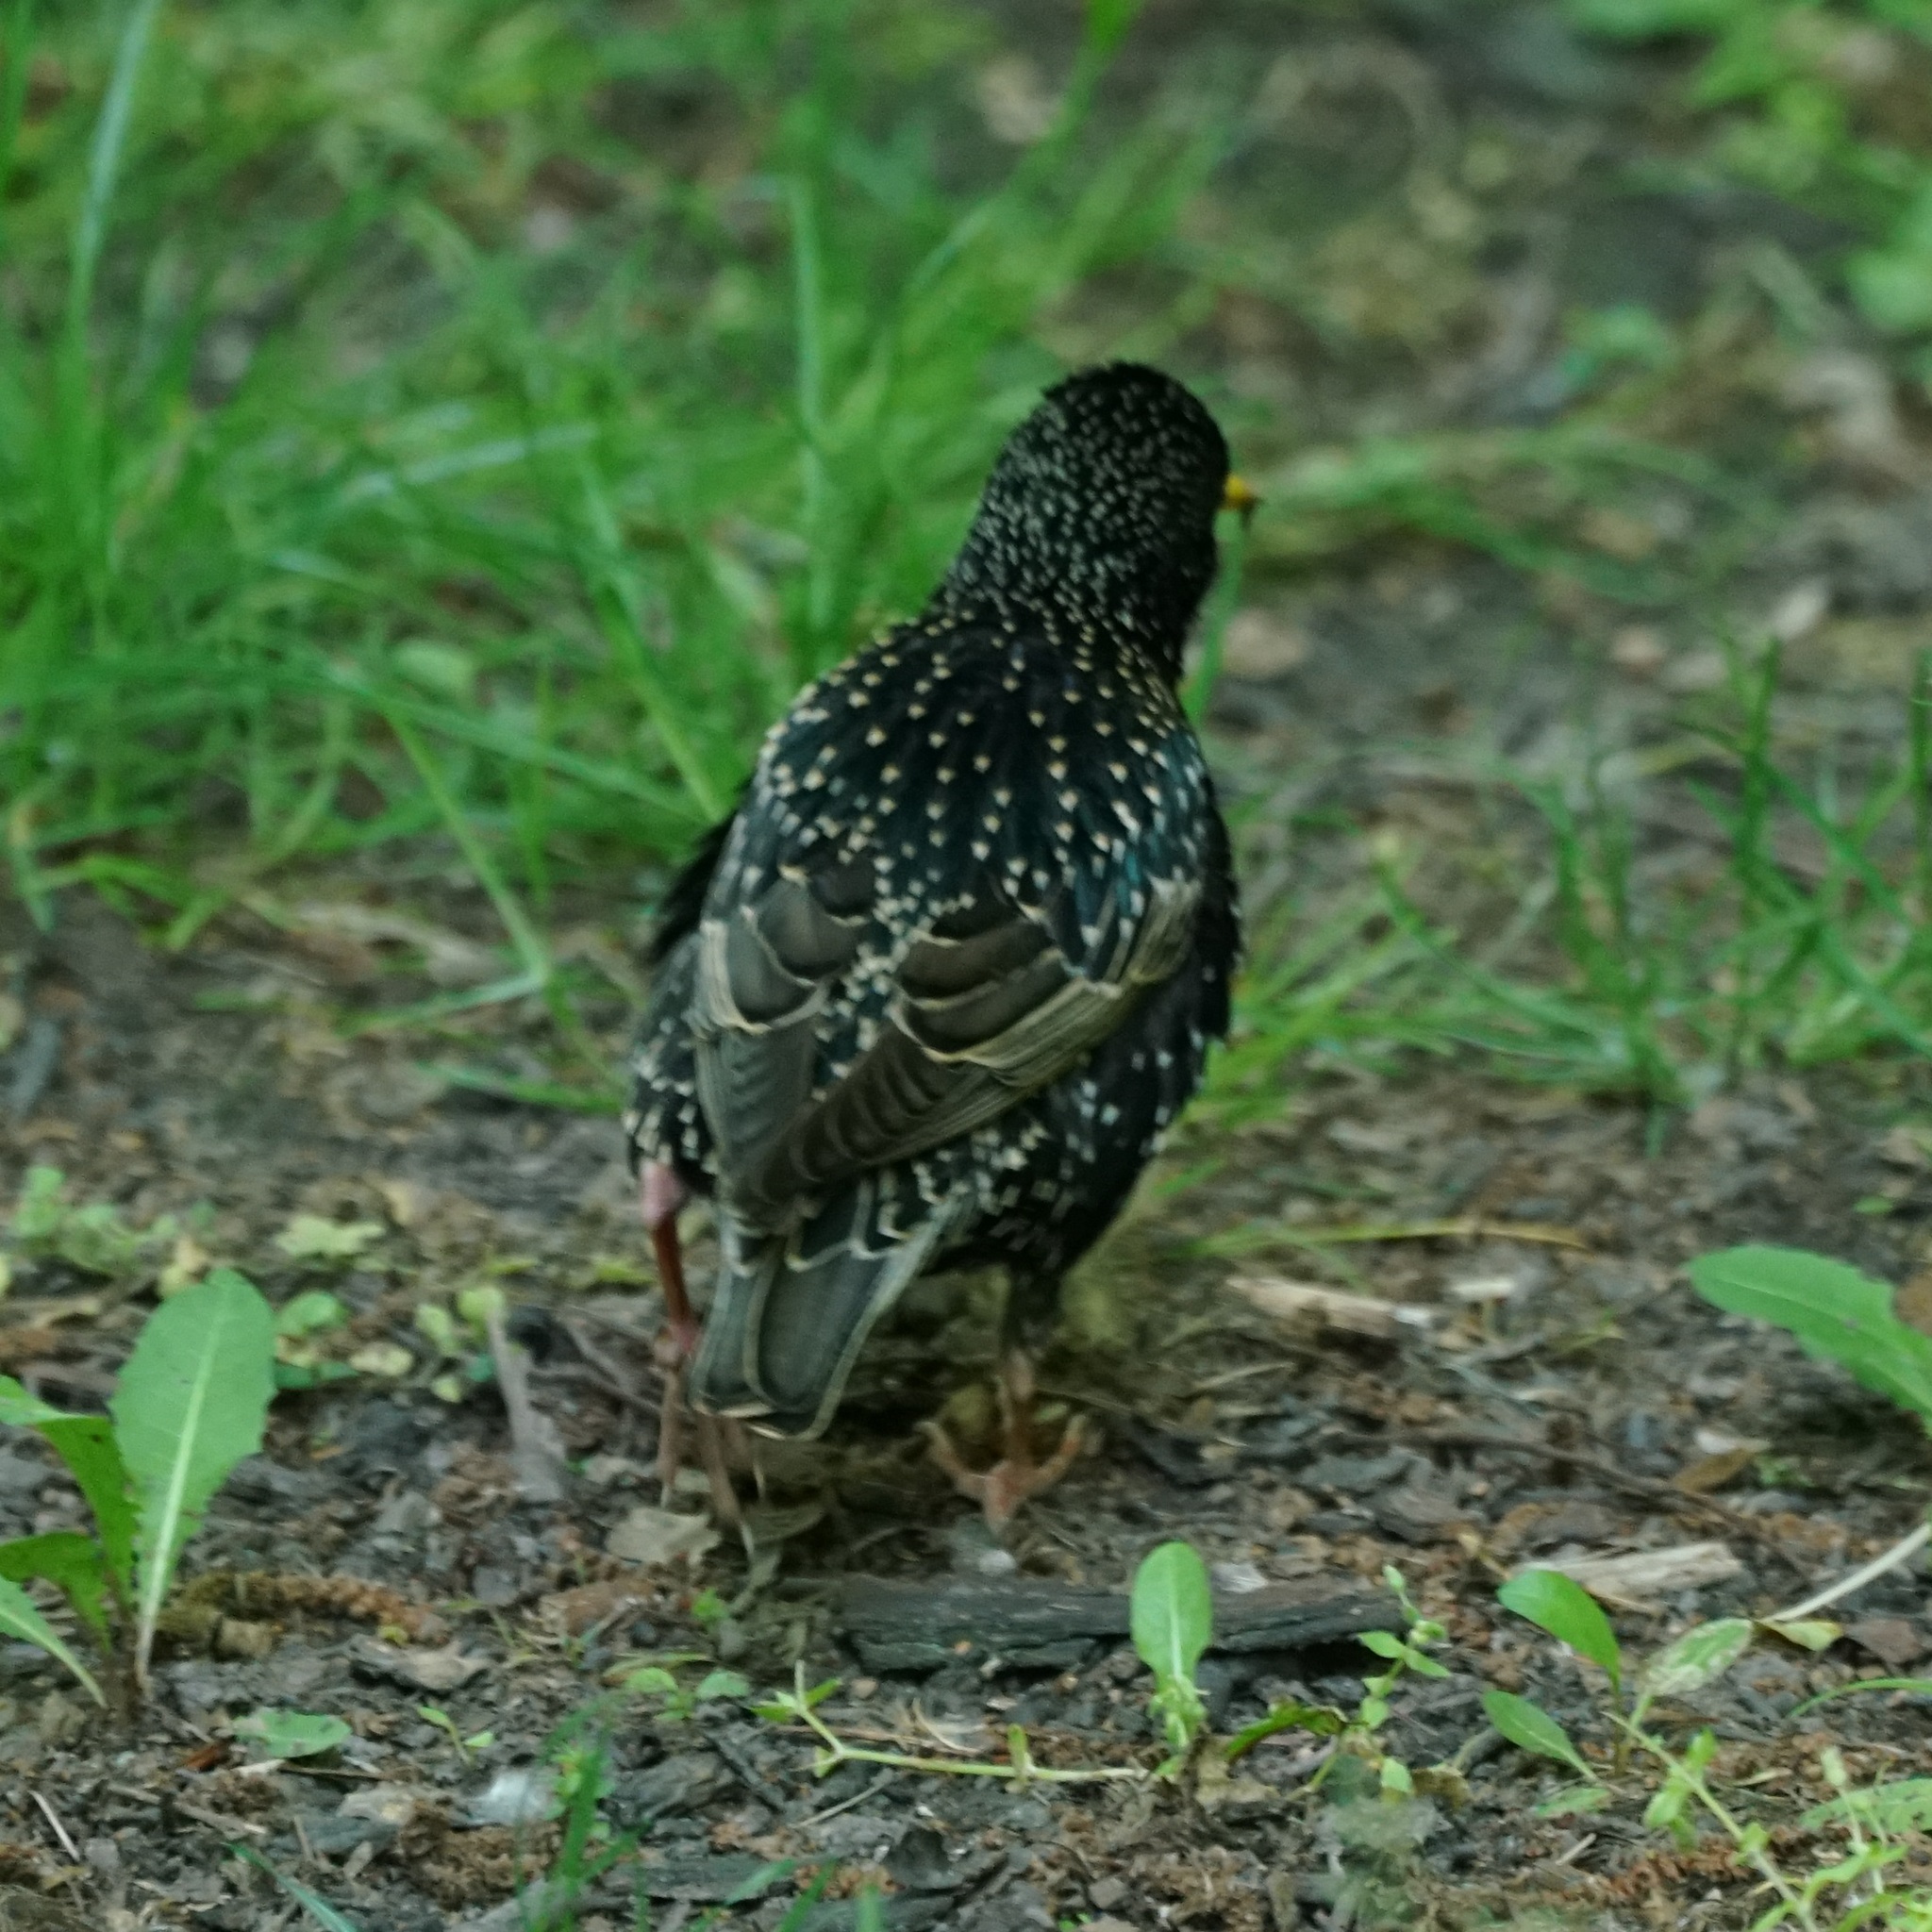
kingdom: Animalia
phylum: Chordata
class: Aves
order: Passeriformes
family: Sturnidae
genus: Sturnus
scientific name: Sturnus vulgaris
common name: Common starling
